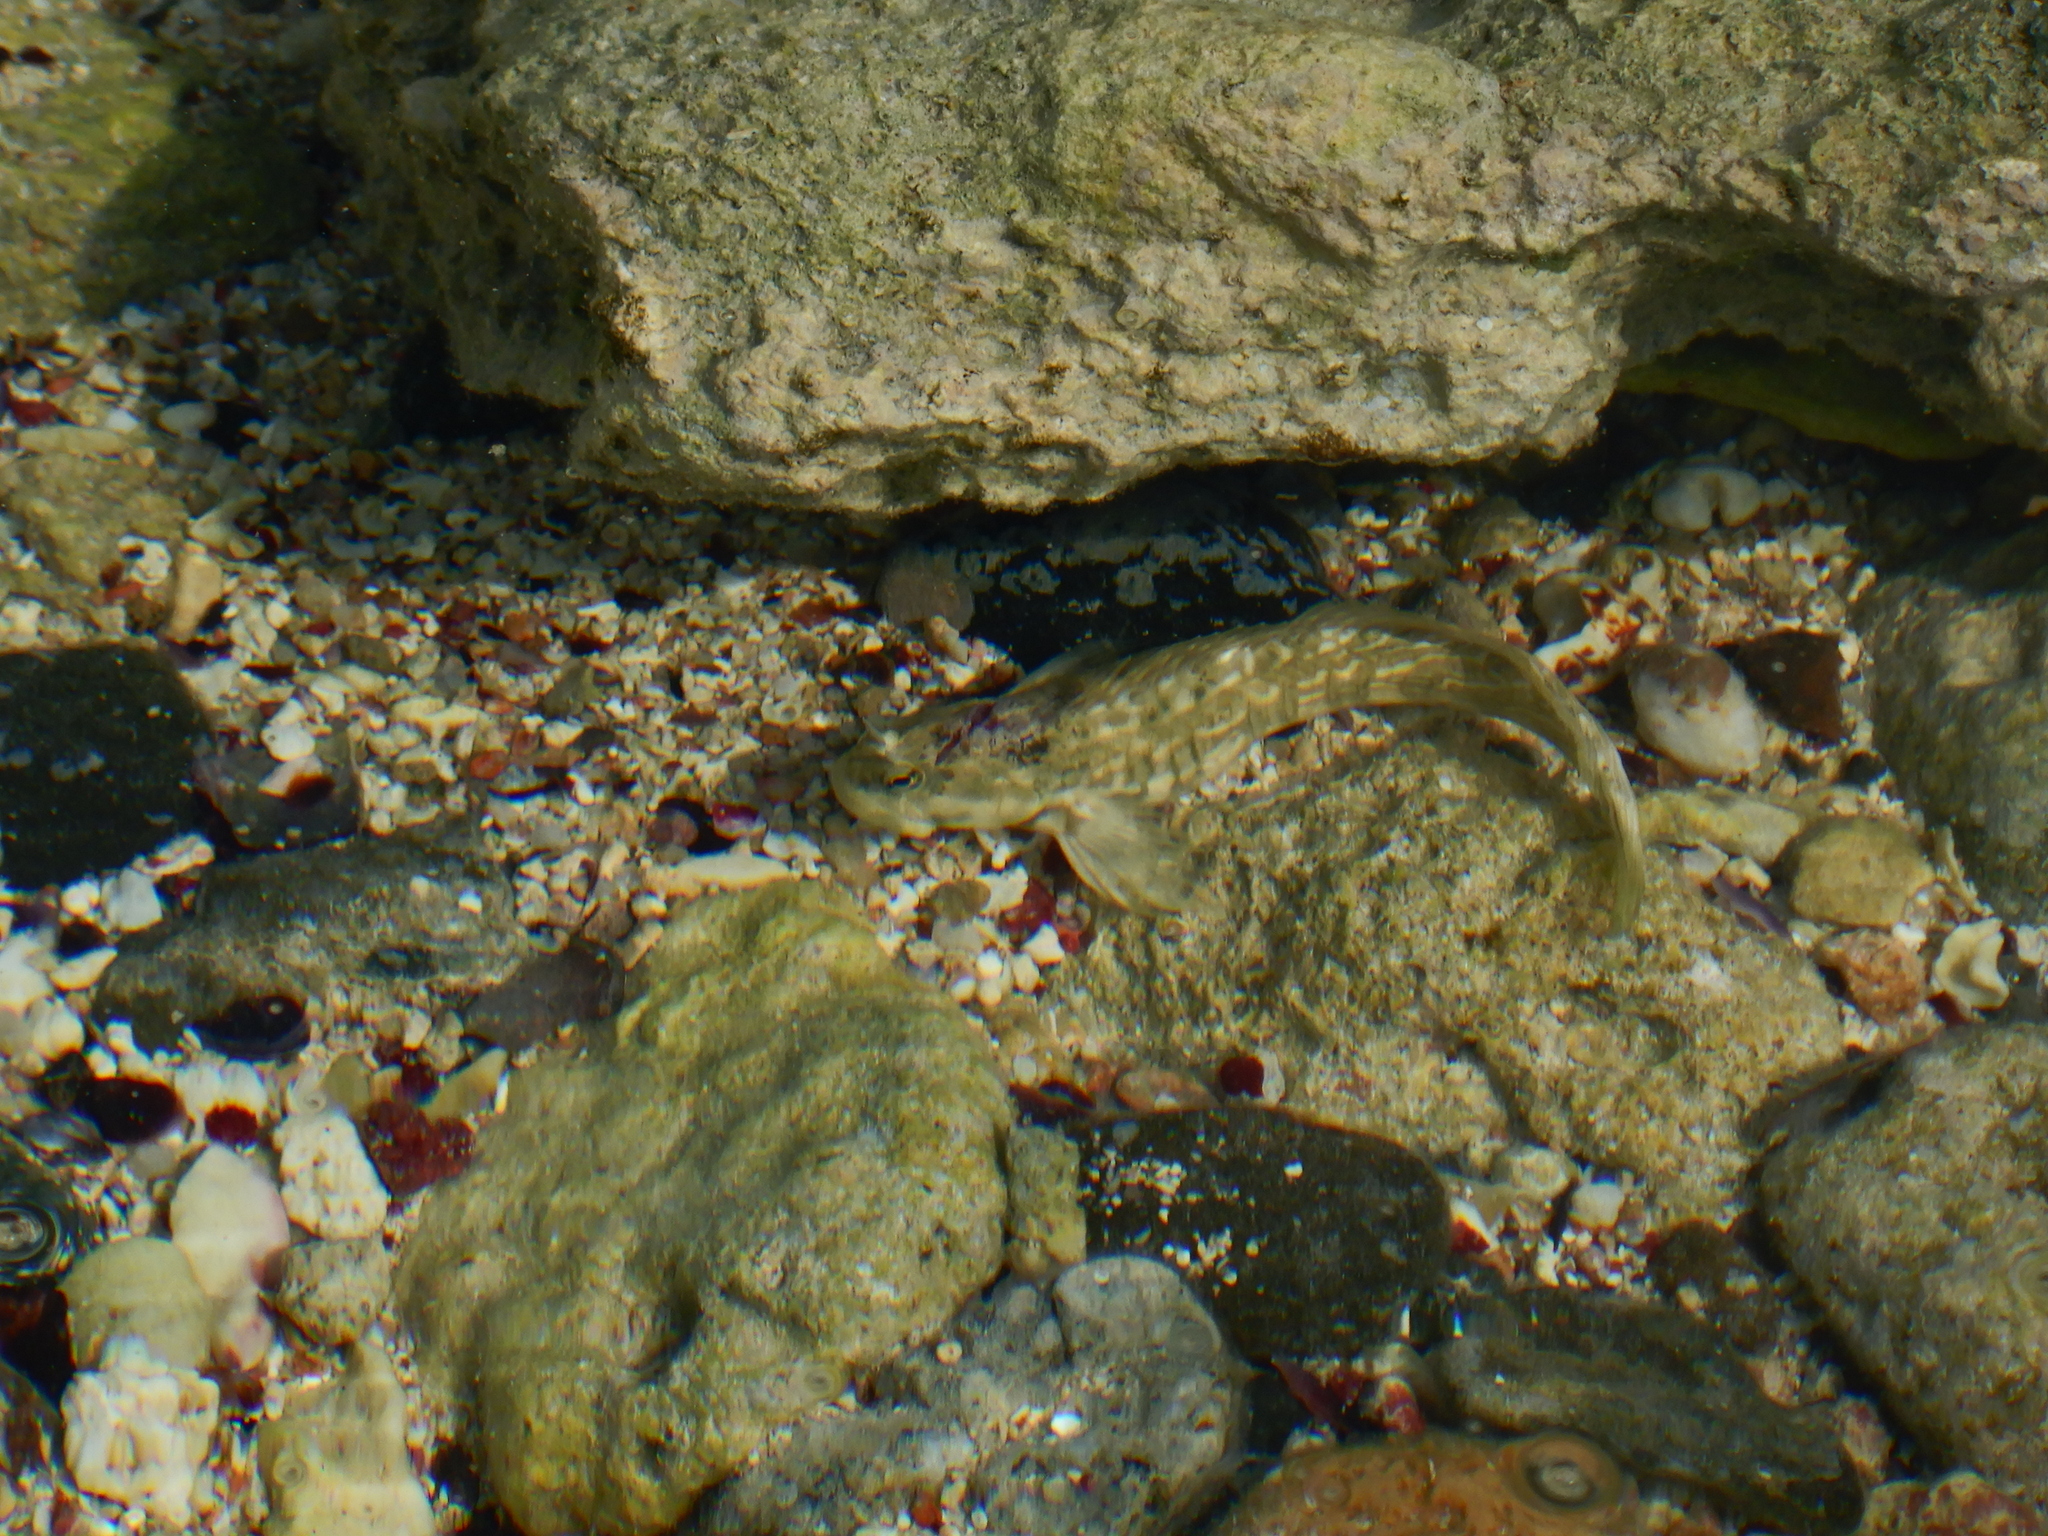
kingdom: Animalia
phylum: Chordata
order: Perciformes
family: Blenniidae
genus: Istiblennius
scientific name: Istiblennius rivulatus
